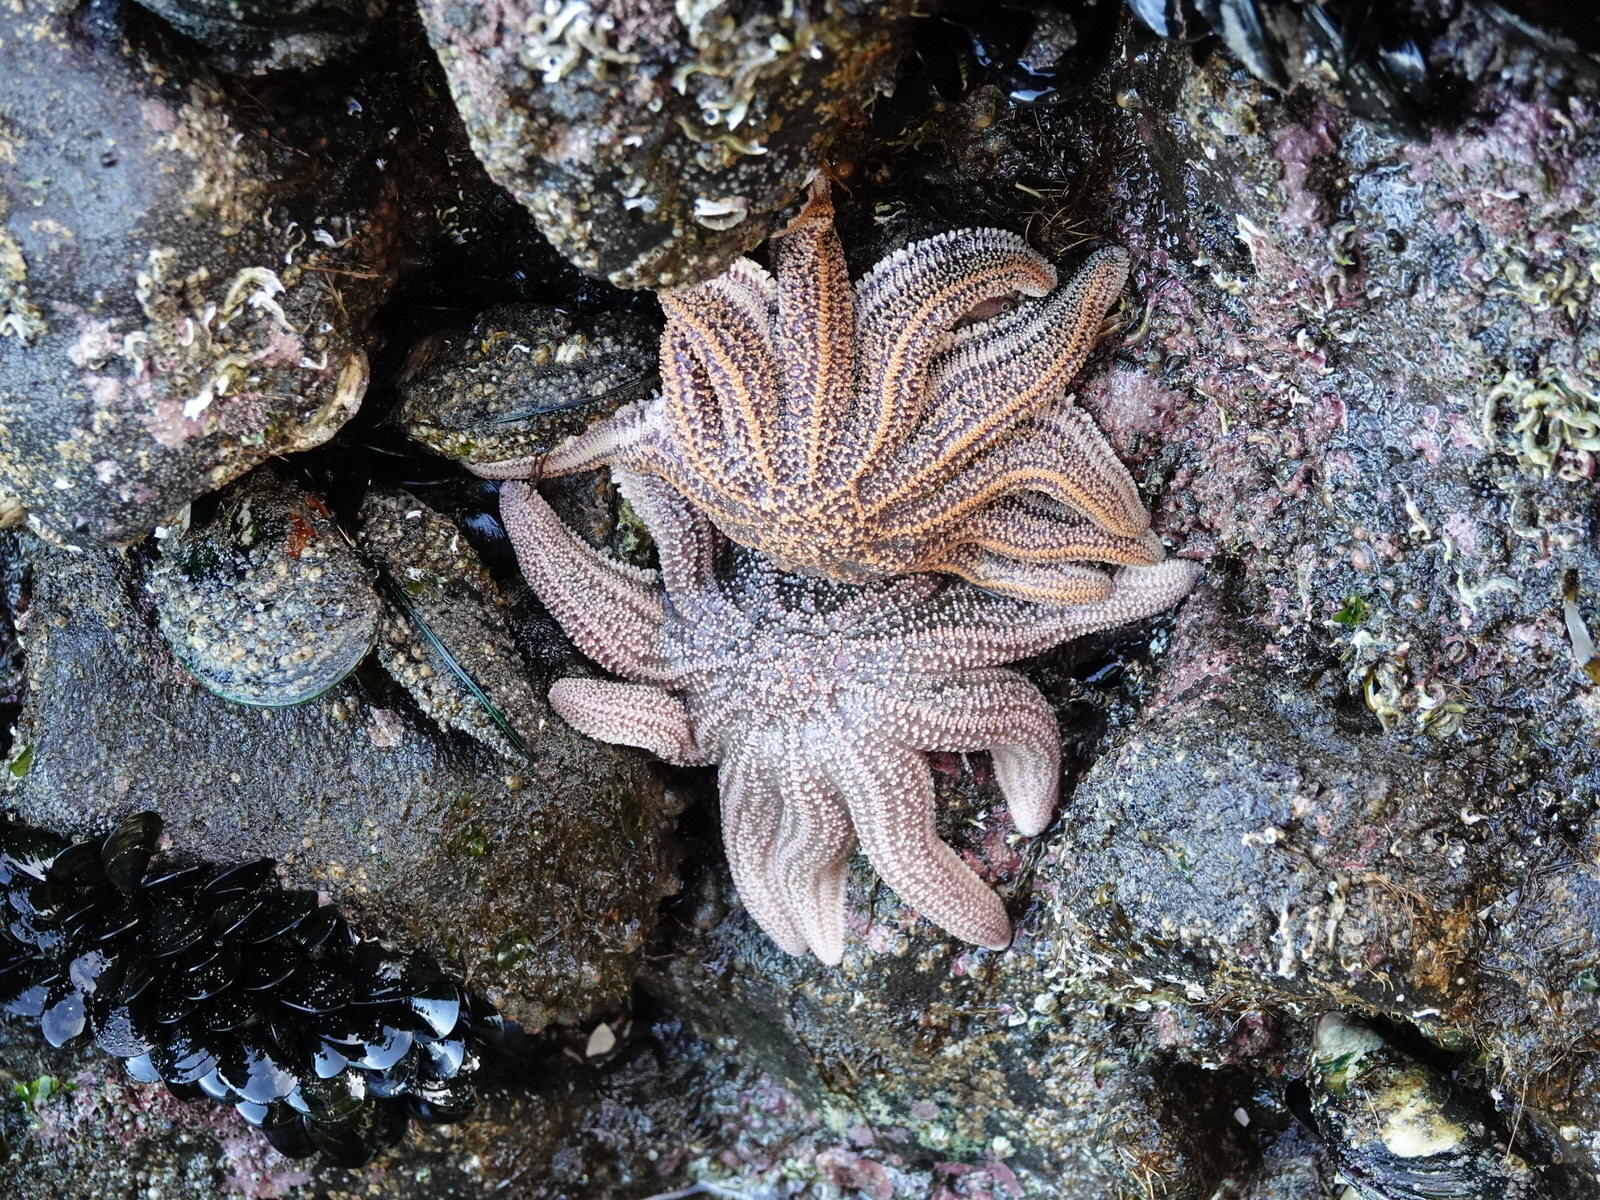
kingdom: Animalia
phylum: Echinodermata
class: Asteroidea
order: Forcipulatida
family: Stichasteridae
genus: Stichaster
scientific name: Stichaster australis
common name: Reef starfish
